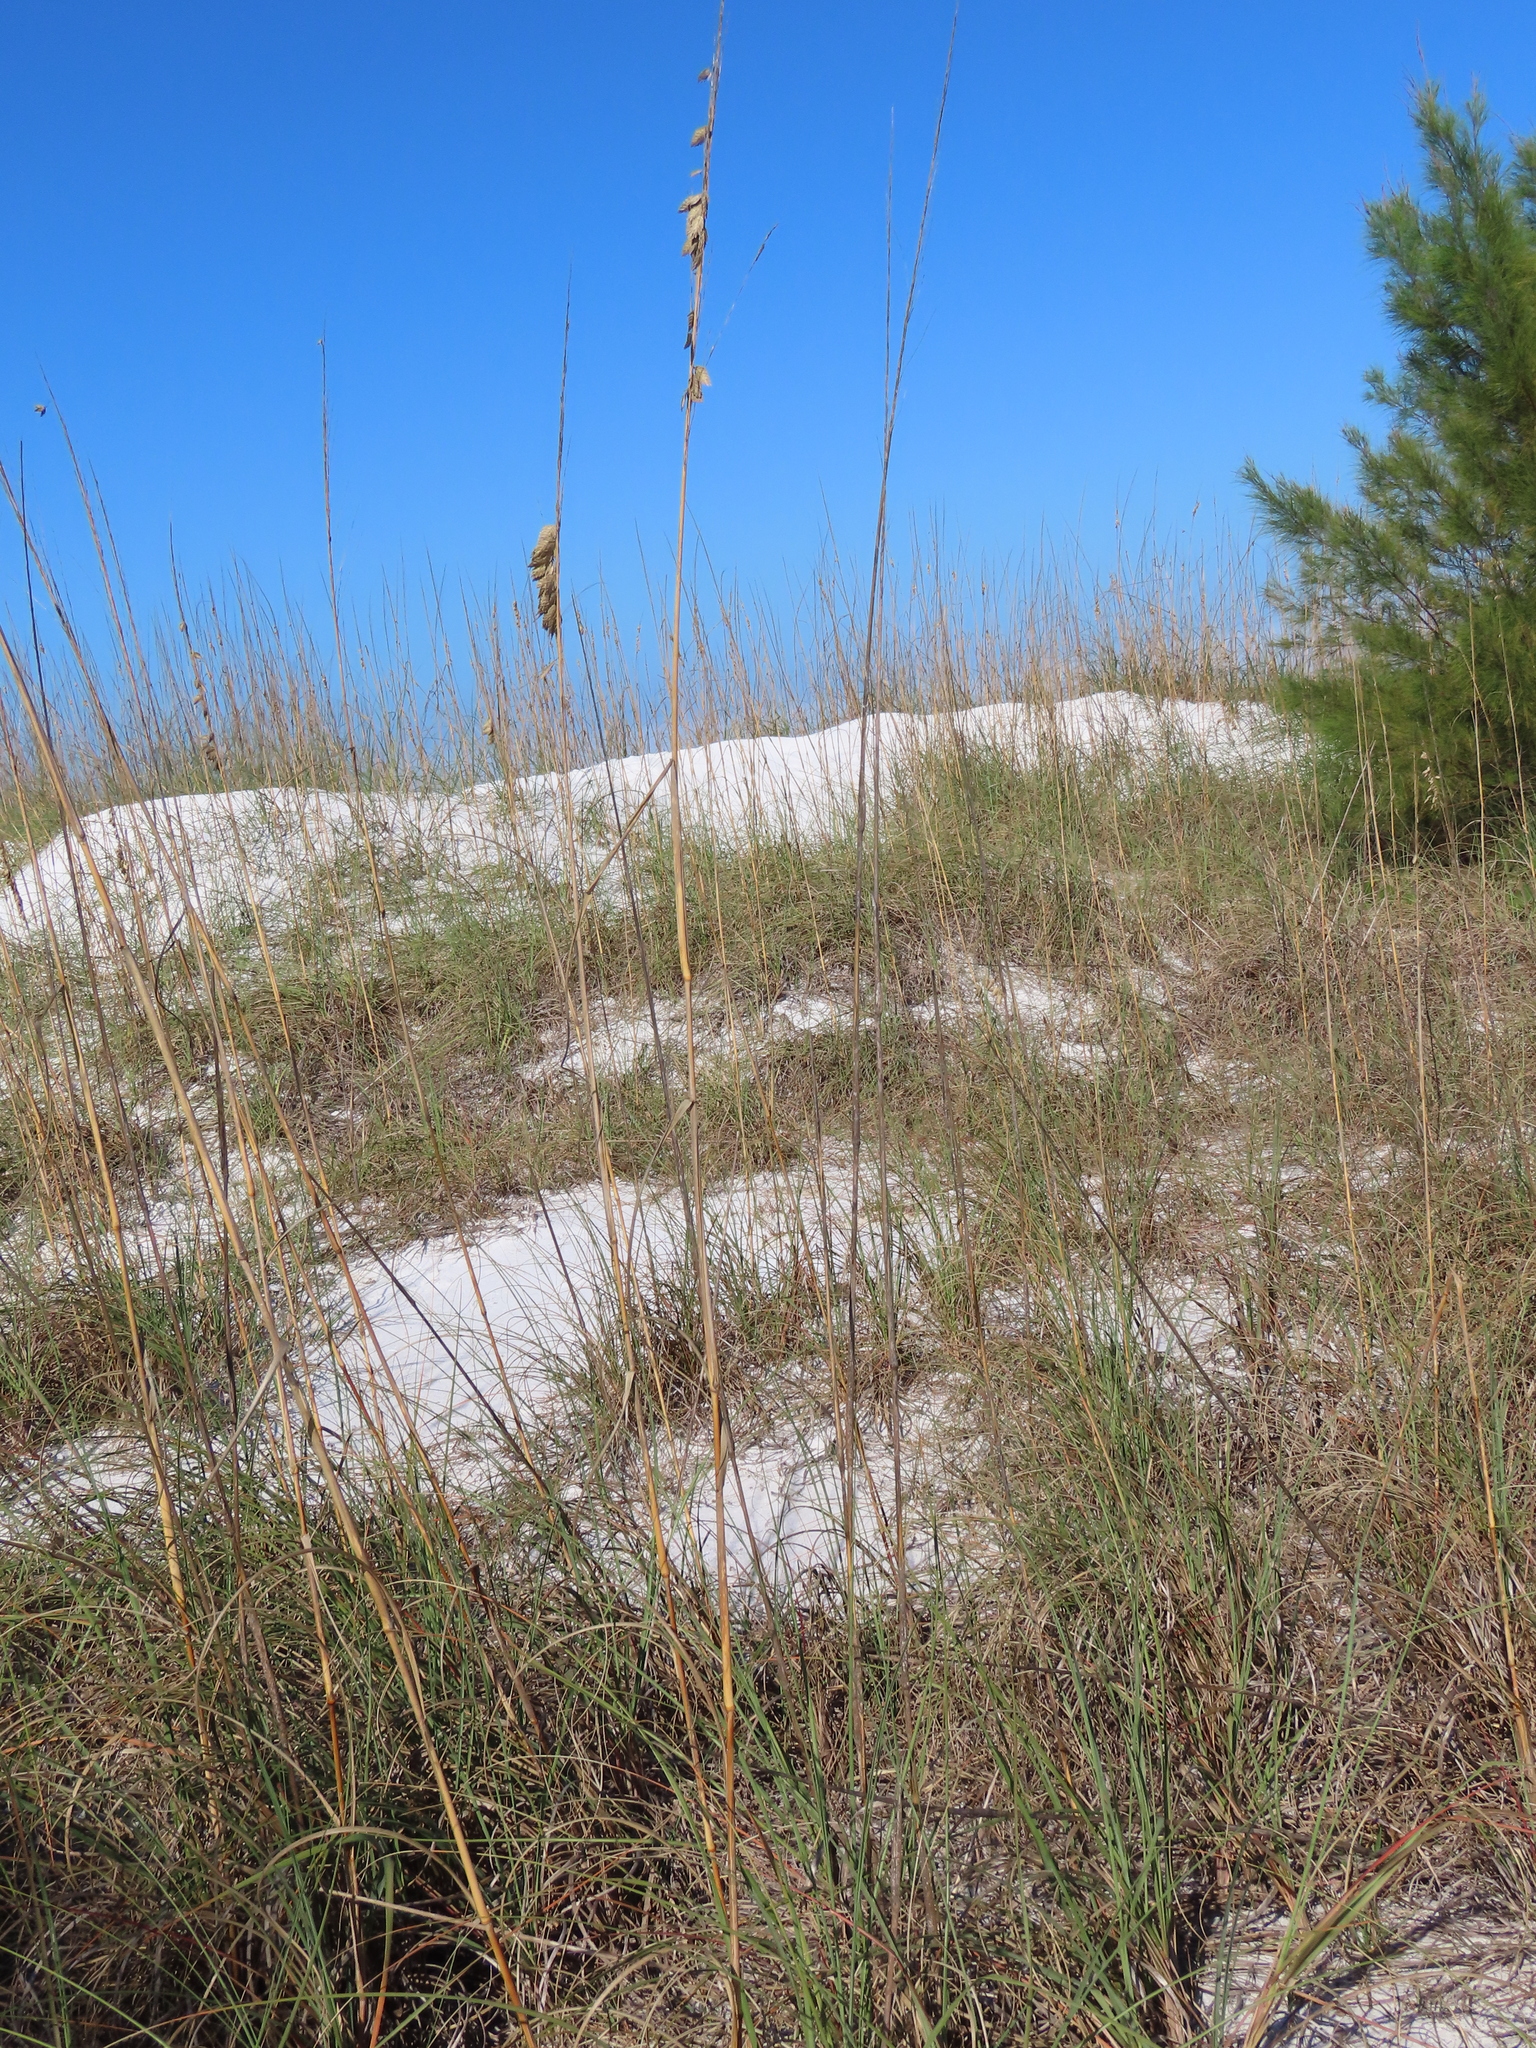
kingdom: Plantae
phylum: Tracheophyta
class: Liliopsida
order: Poales
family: Poaceae
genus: Uniola
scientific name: Uniola paniculata
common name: Seaside-oats
